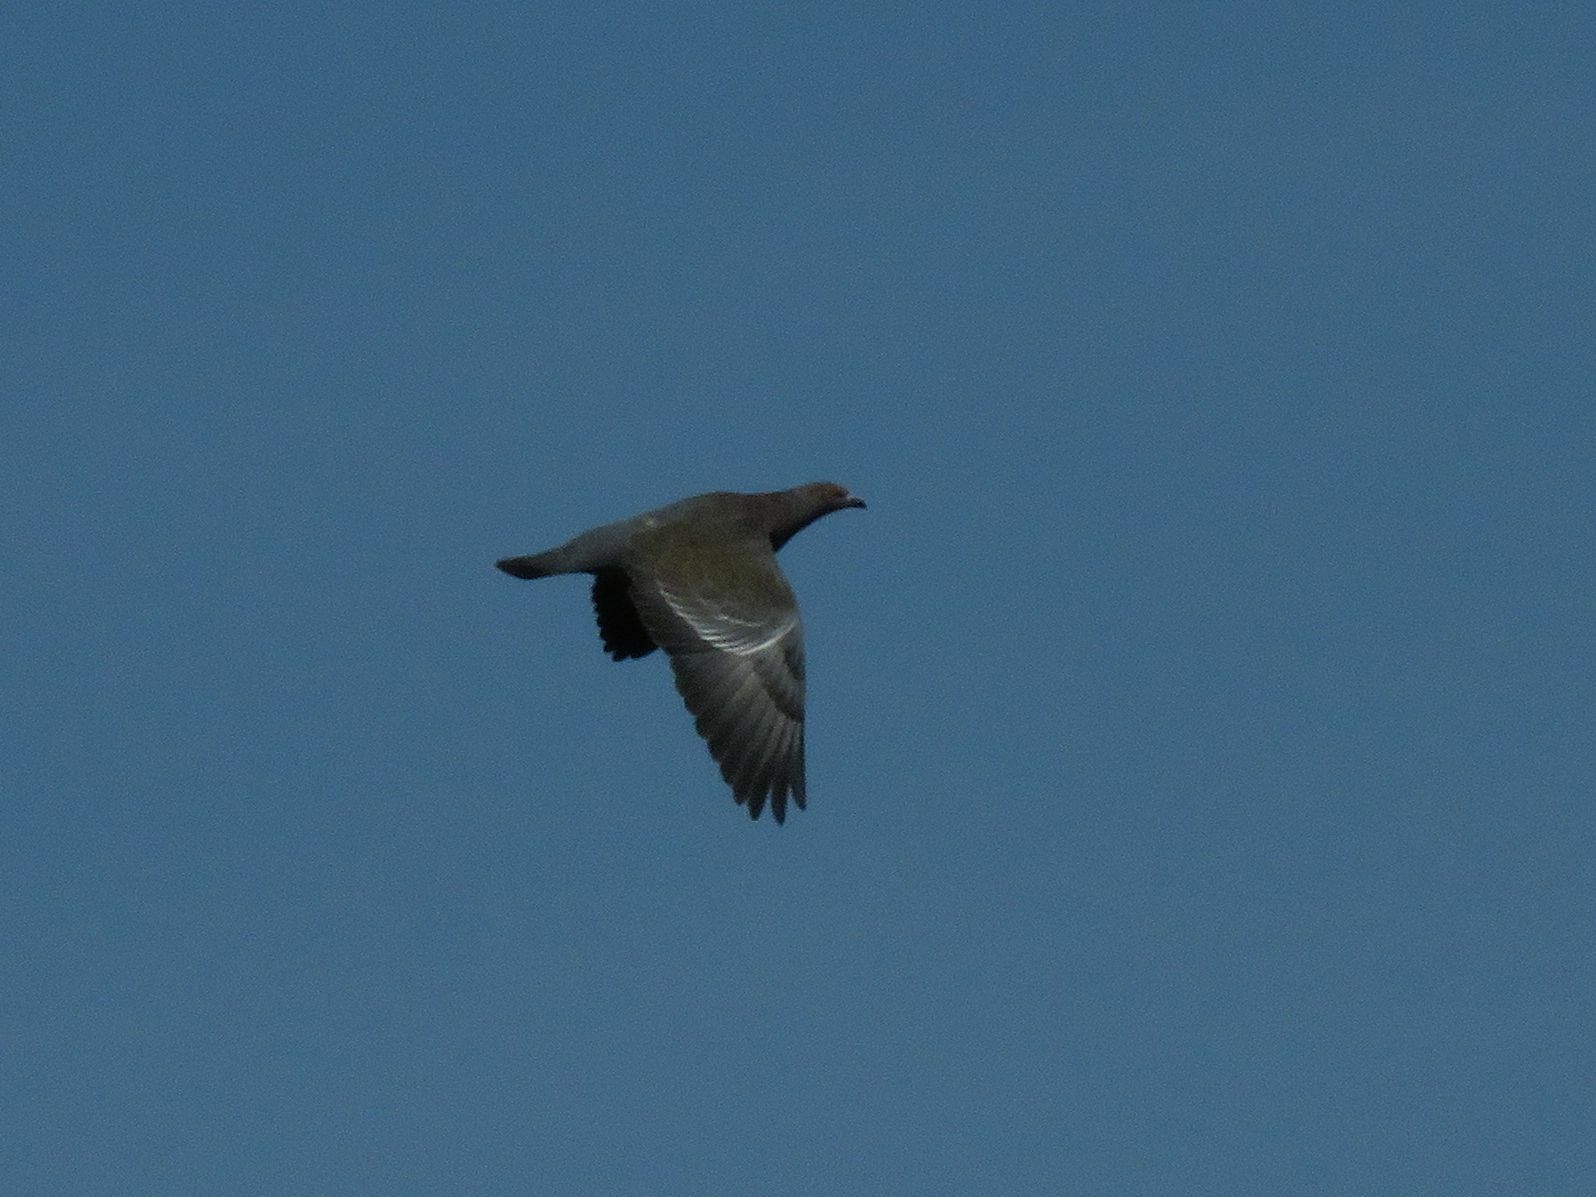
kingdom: Animalia
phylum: Chordata
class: Aves
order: Columbiformes
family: Columbidae
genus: Patagioenas
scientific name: Patagioenas picazuro
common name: Picazuro pigeon
